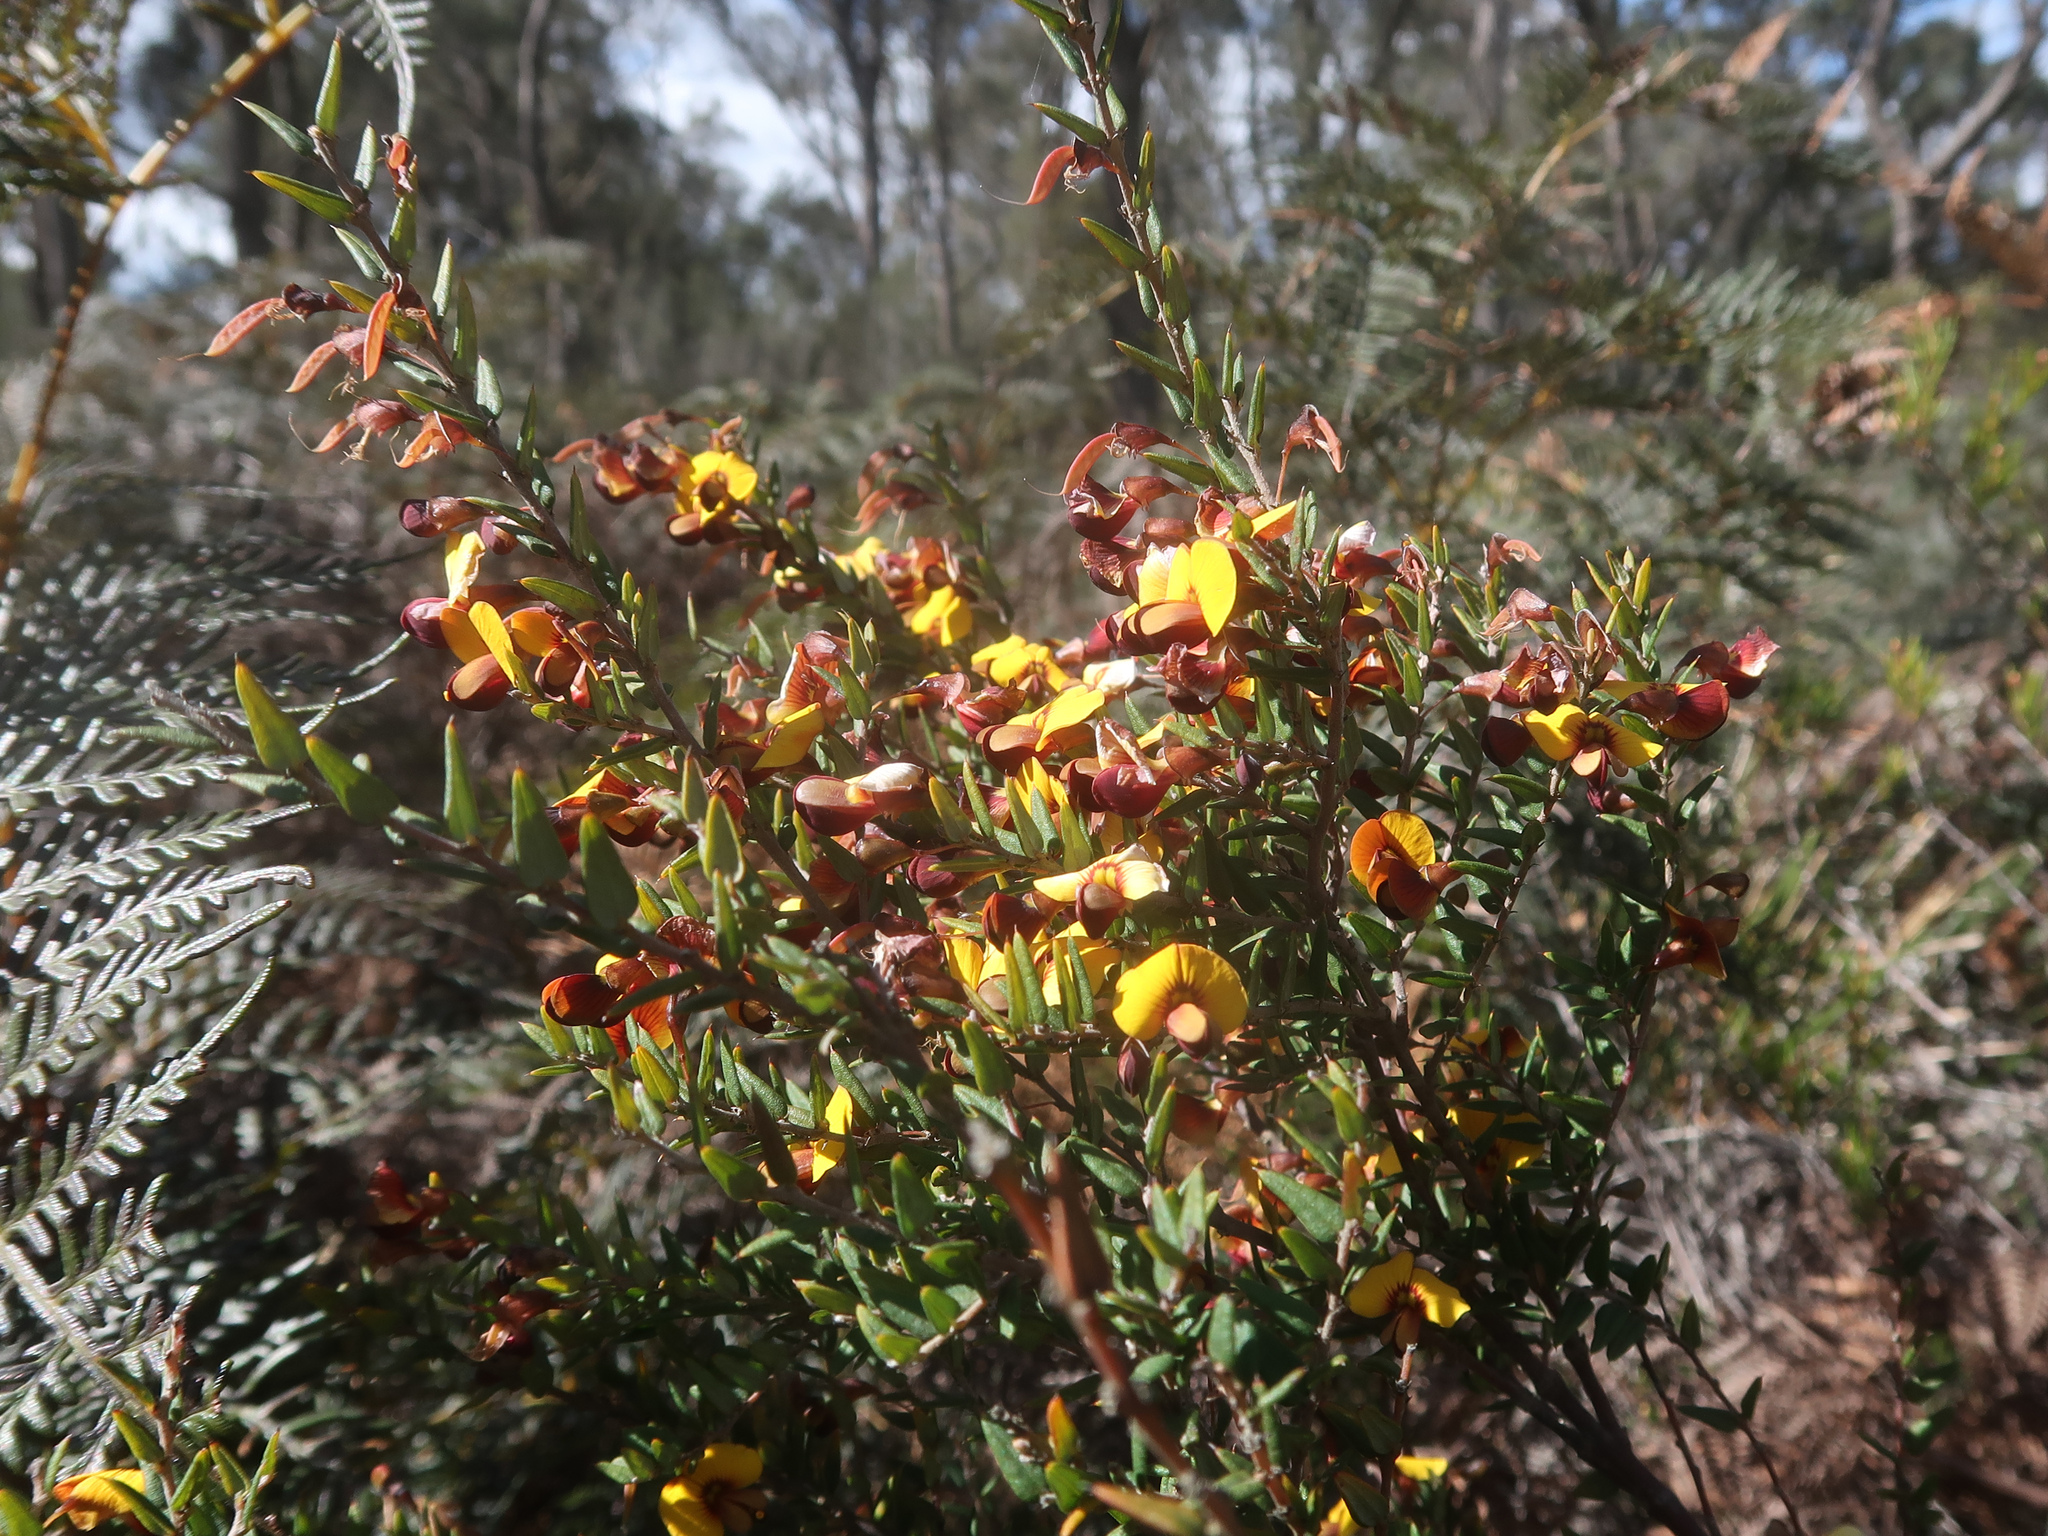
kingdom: Plantae
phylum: Tracheophyta
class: Magnoliopsida
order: Fabales
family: Fabaceae
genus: Bossiaea
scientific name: Bossiaea cinerea
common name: Showy bossiaea
